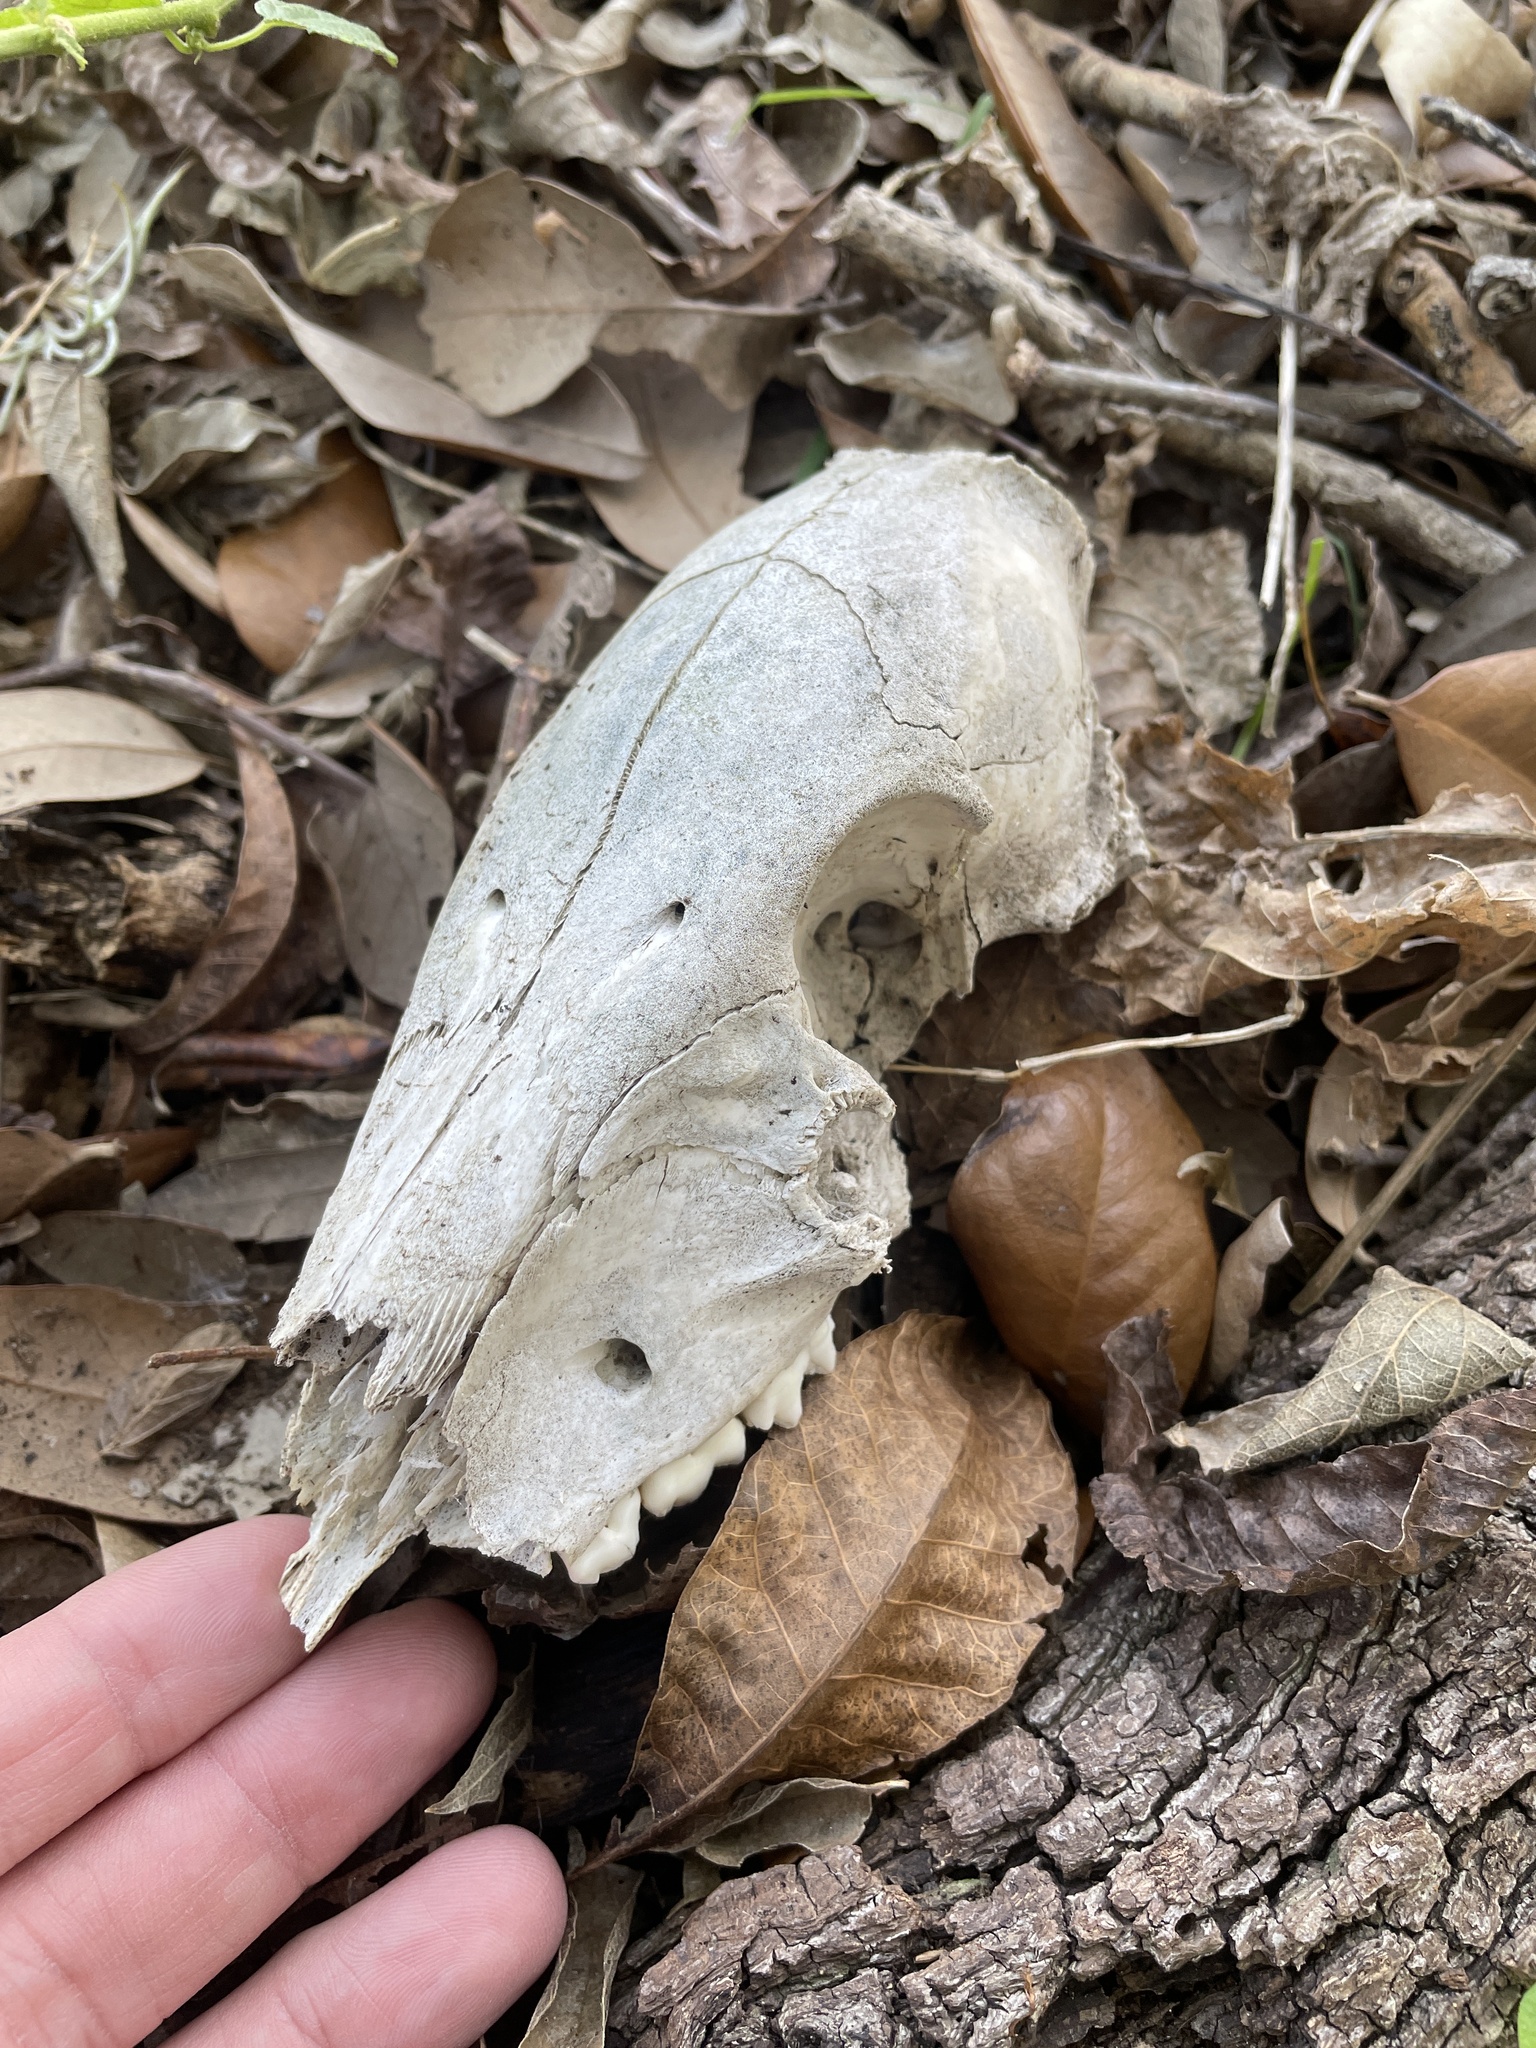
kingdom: Animalia
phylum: Chordata
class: Mammalia
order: Artiodactyla
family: Suidae
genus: Sus
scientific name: Sus scrofa
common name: Wild boar
